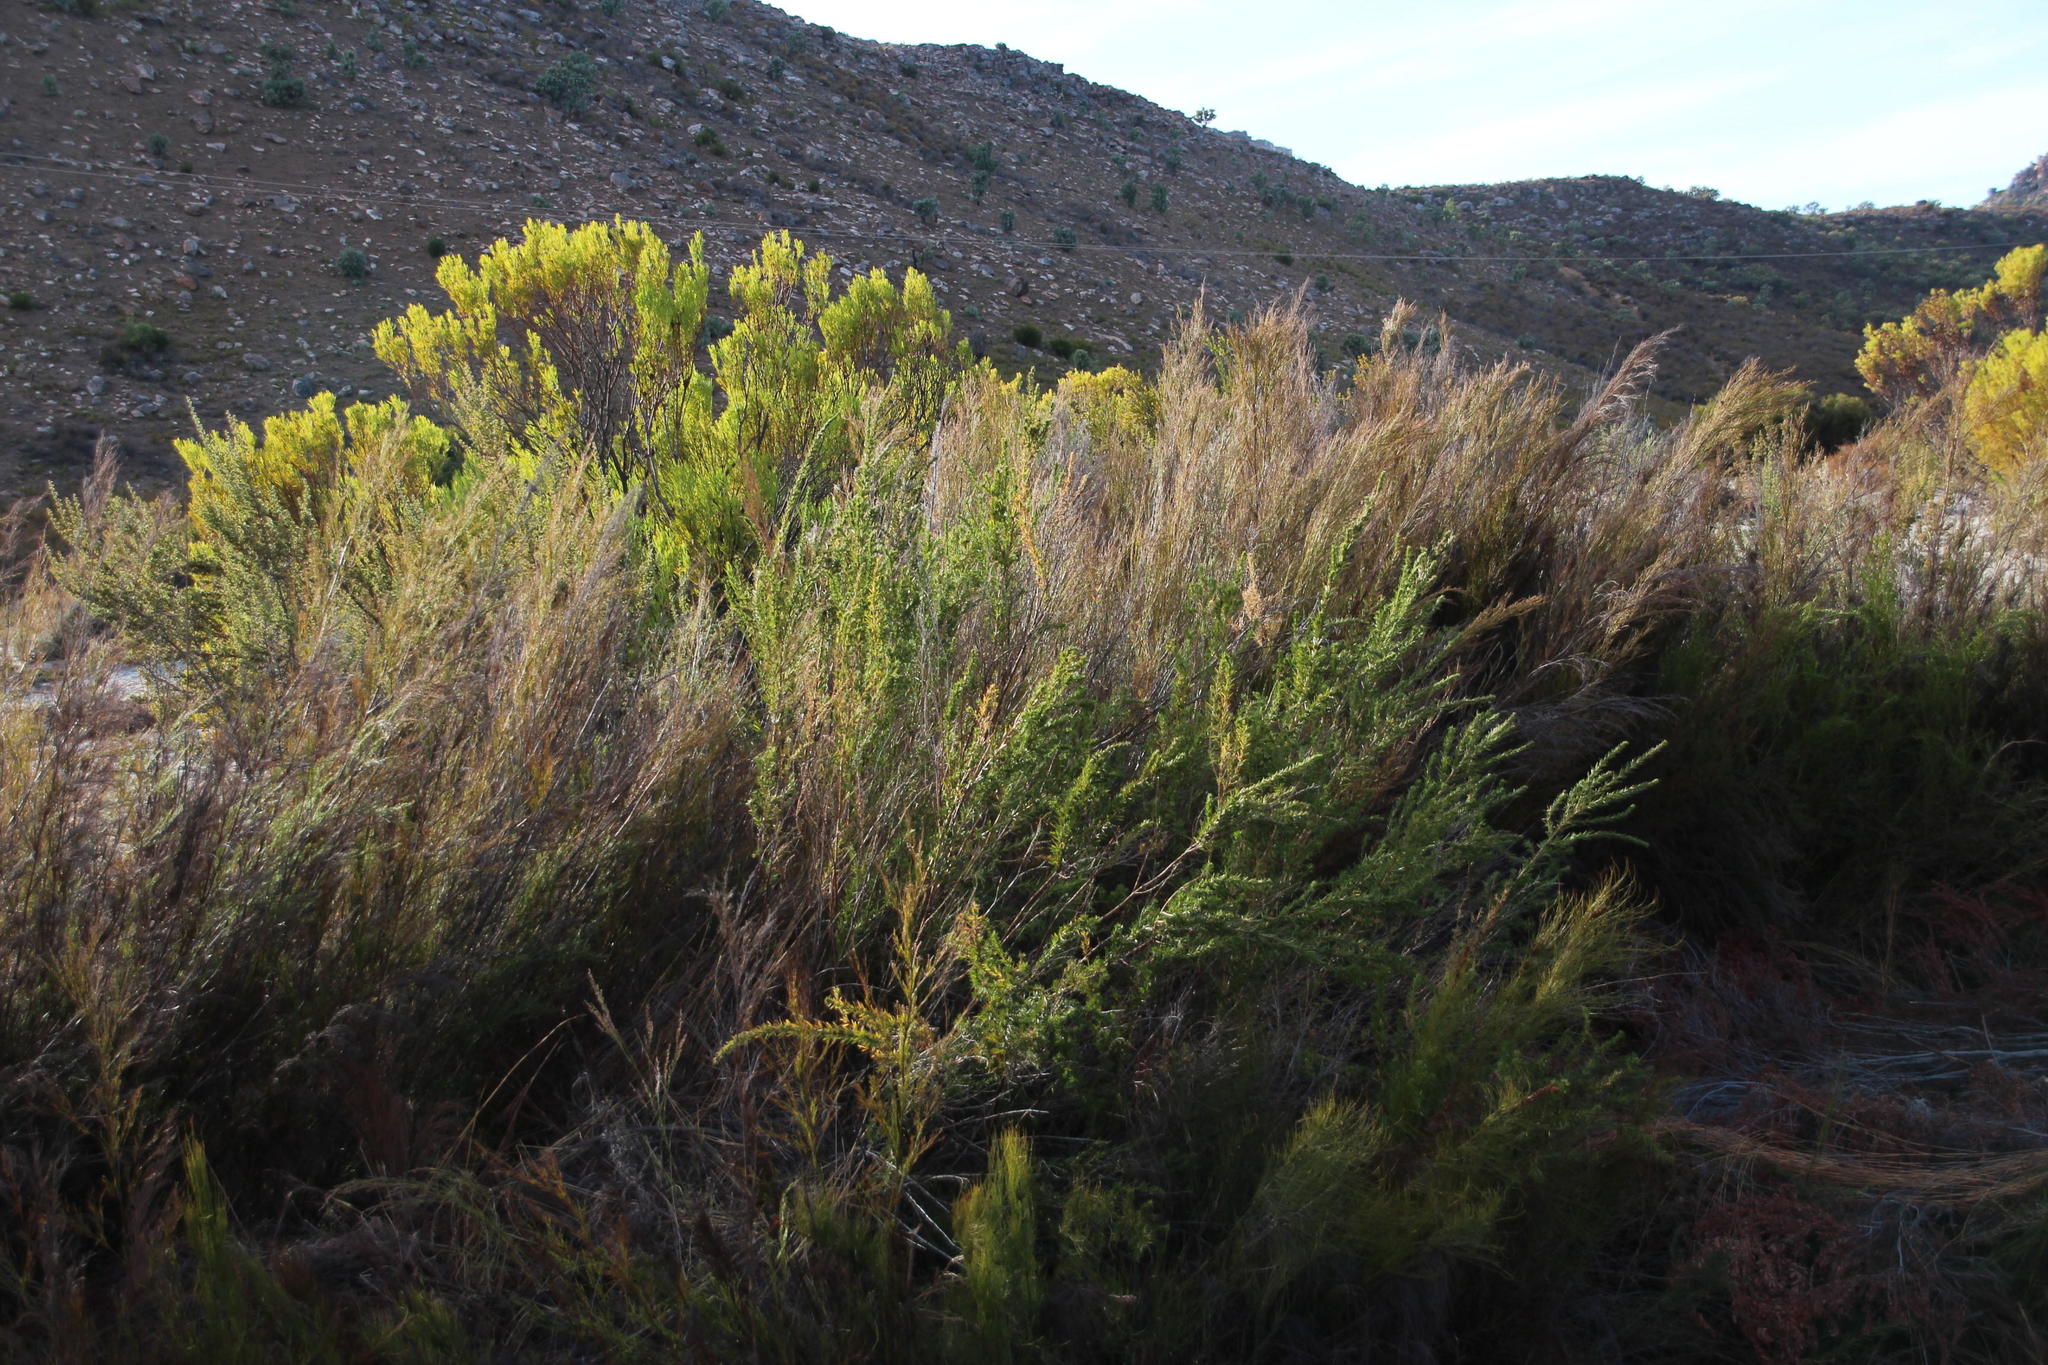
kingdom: Plantae
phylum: Tracheophyta
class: Magnoliopsida
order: Rosales
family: Rosaceae
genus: Cliffortia
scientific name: Cliffortia strobilifera
